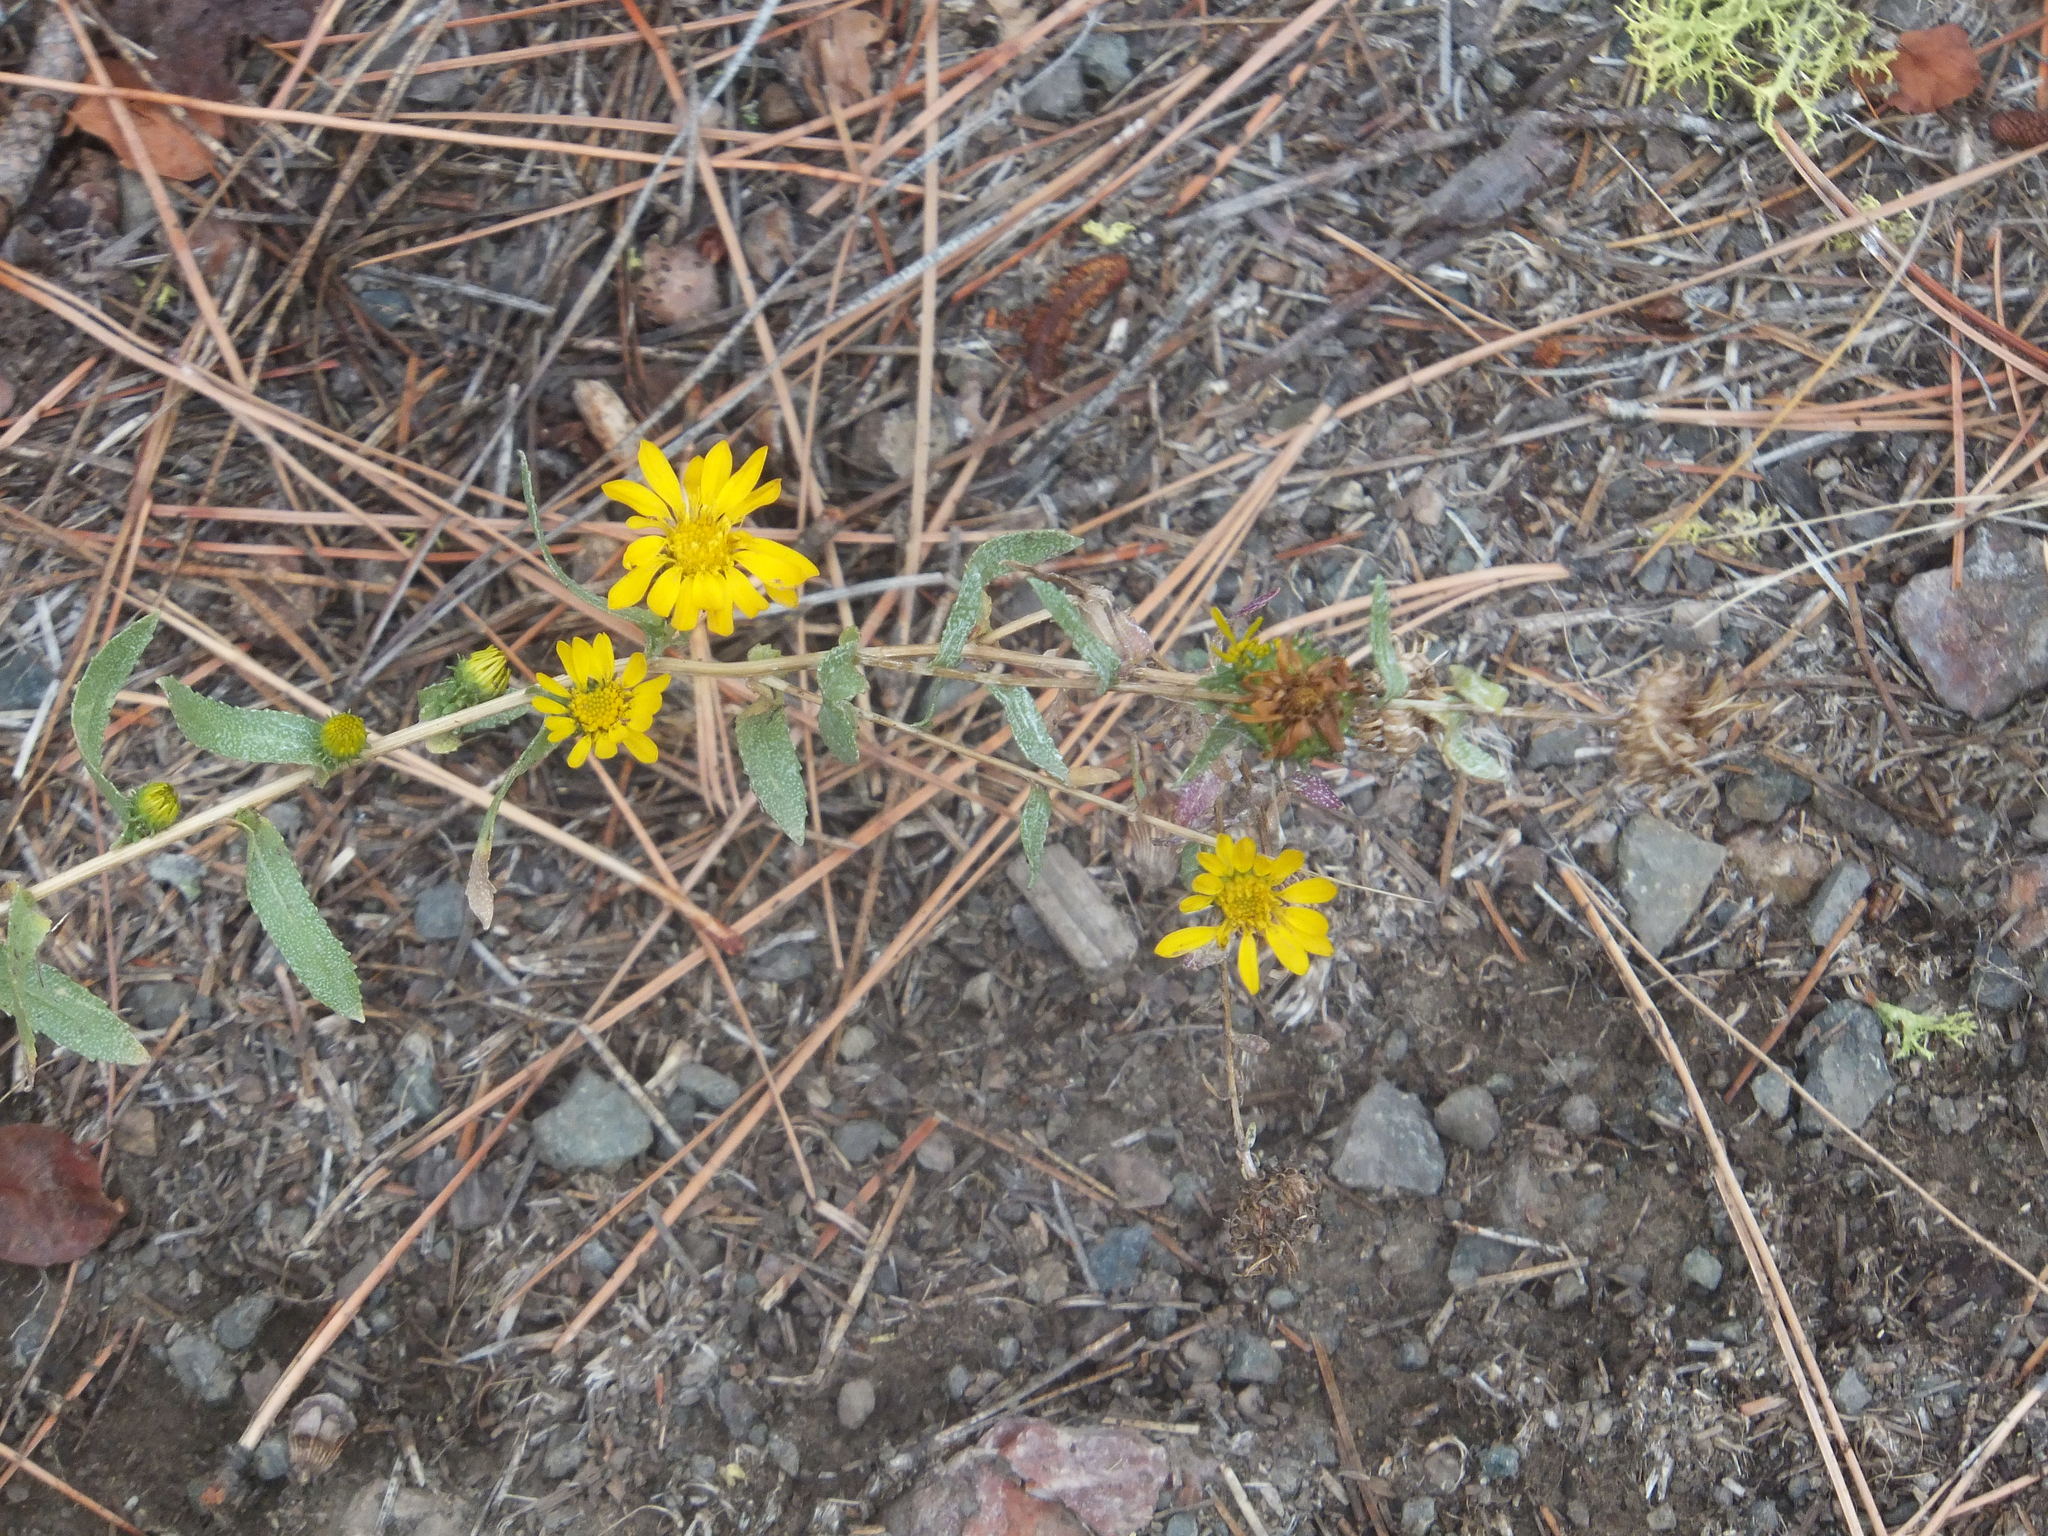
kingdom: Plantae
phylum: Tracheophyta
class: Magnoliopsida
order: Asterales
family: Asteraceae
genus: Grindelia
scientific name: Grindelia squarrosa
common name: Curly-cup gumweed
